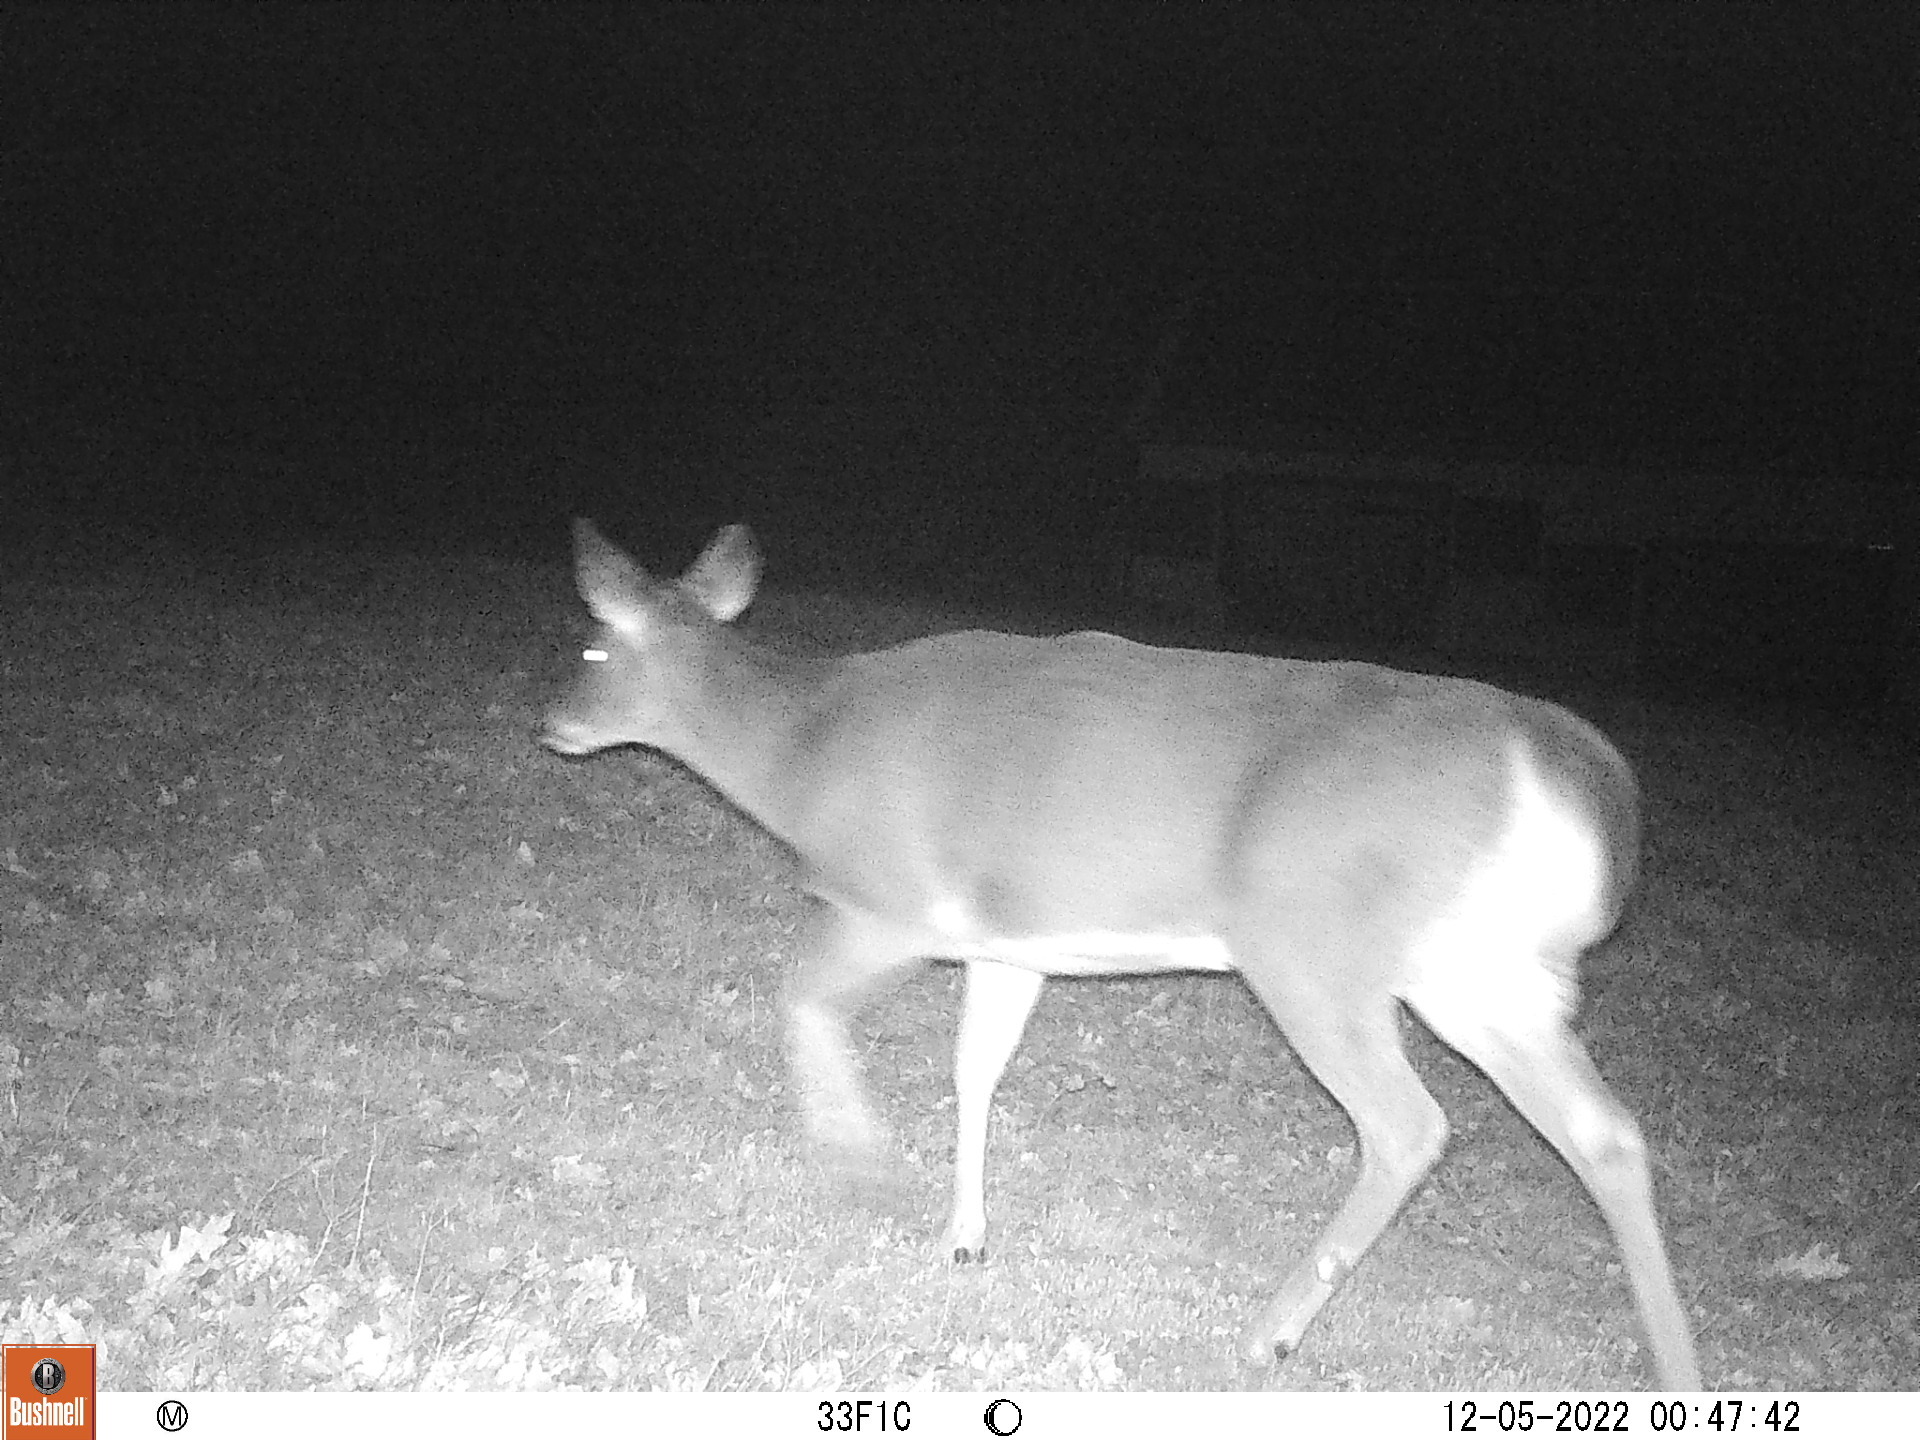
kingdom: Animalia
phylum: Chordata
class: Mammalia
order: Artiodactyla
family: Cervidae
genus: Odocoileus
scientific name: Odocoileus virginianus
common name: White-tailed deer
